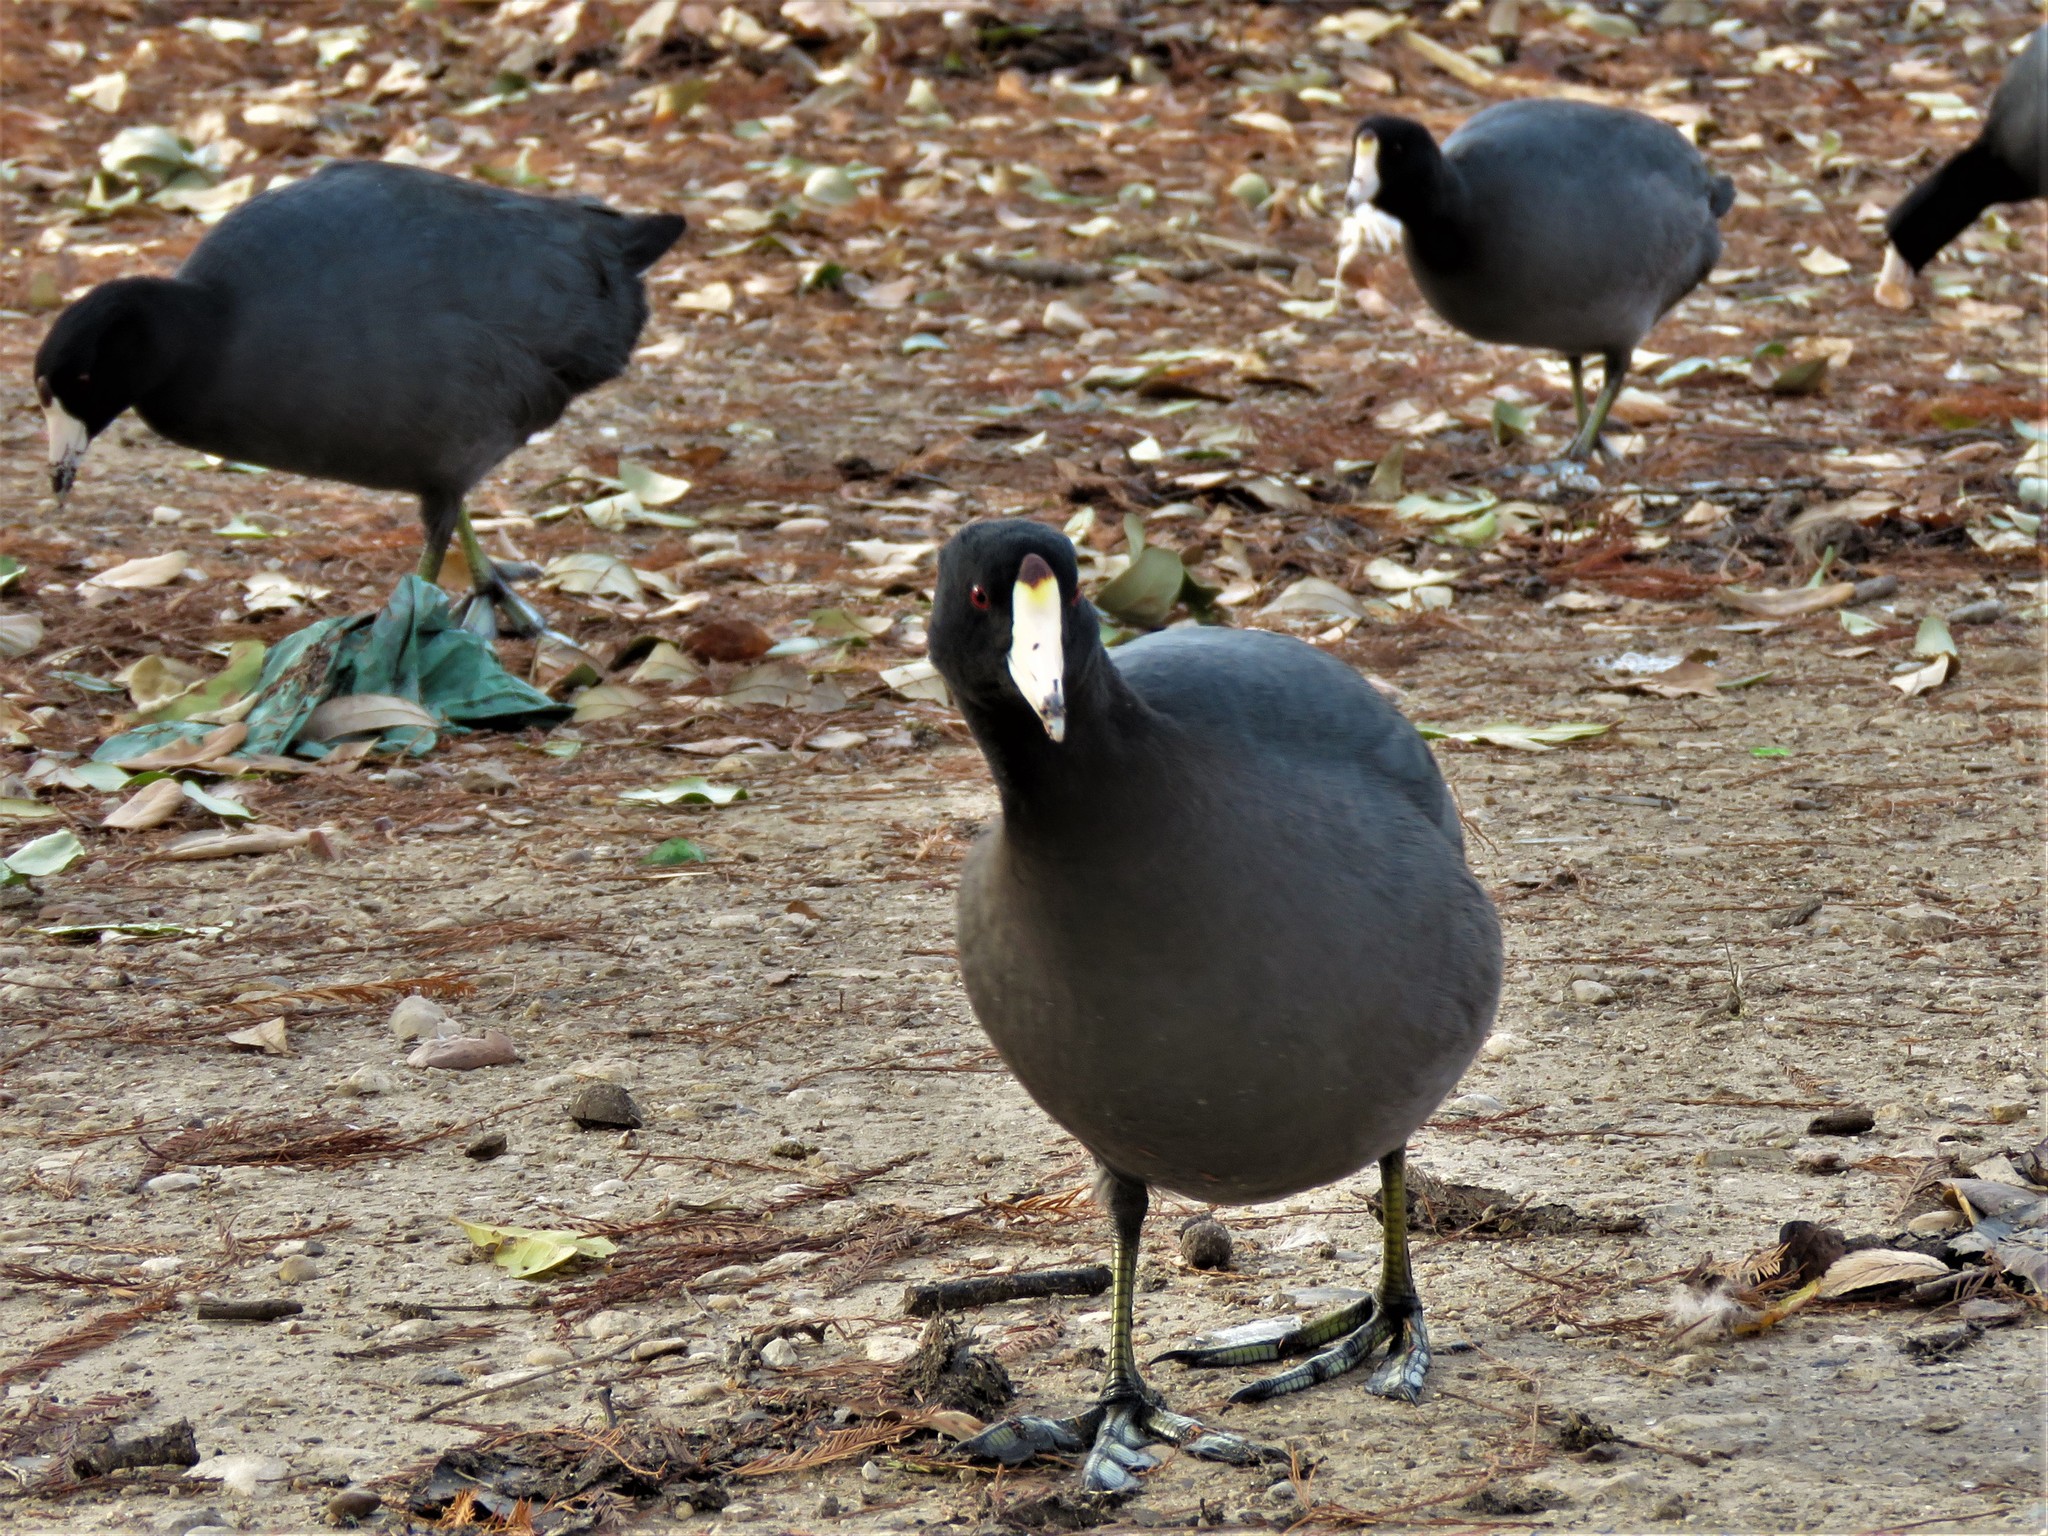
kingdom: Animalia
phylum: Chordata
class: Aves
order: Gruiformes
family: Rallidae
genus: Fulica
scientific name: Fulica americana
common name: American coot
